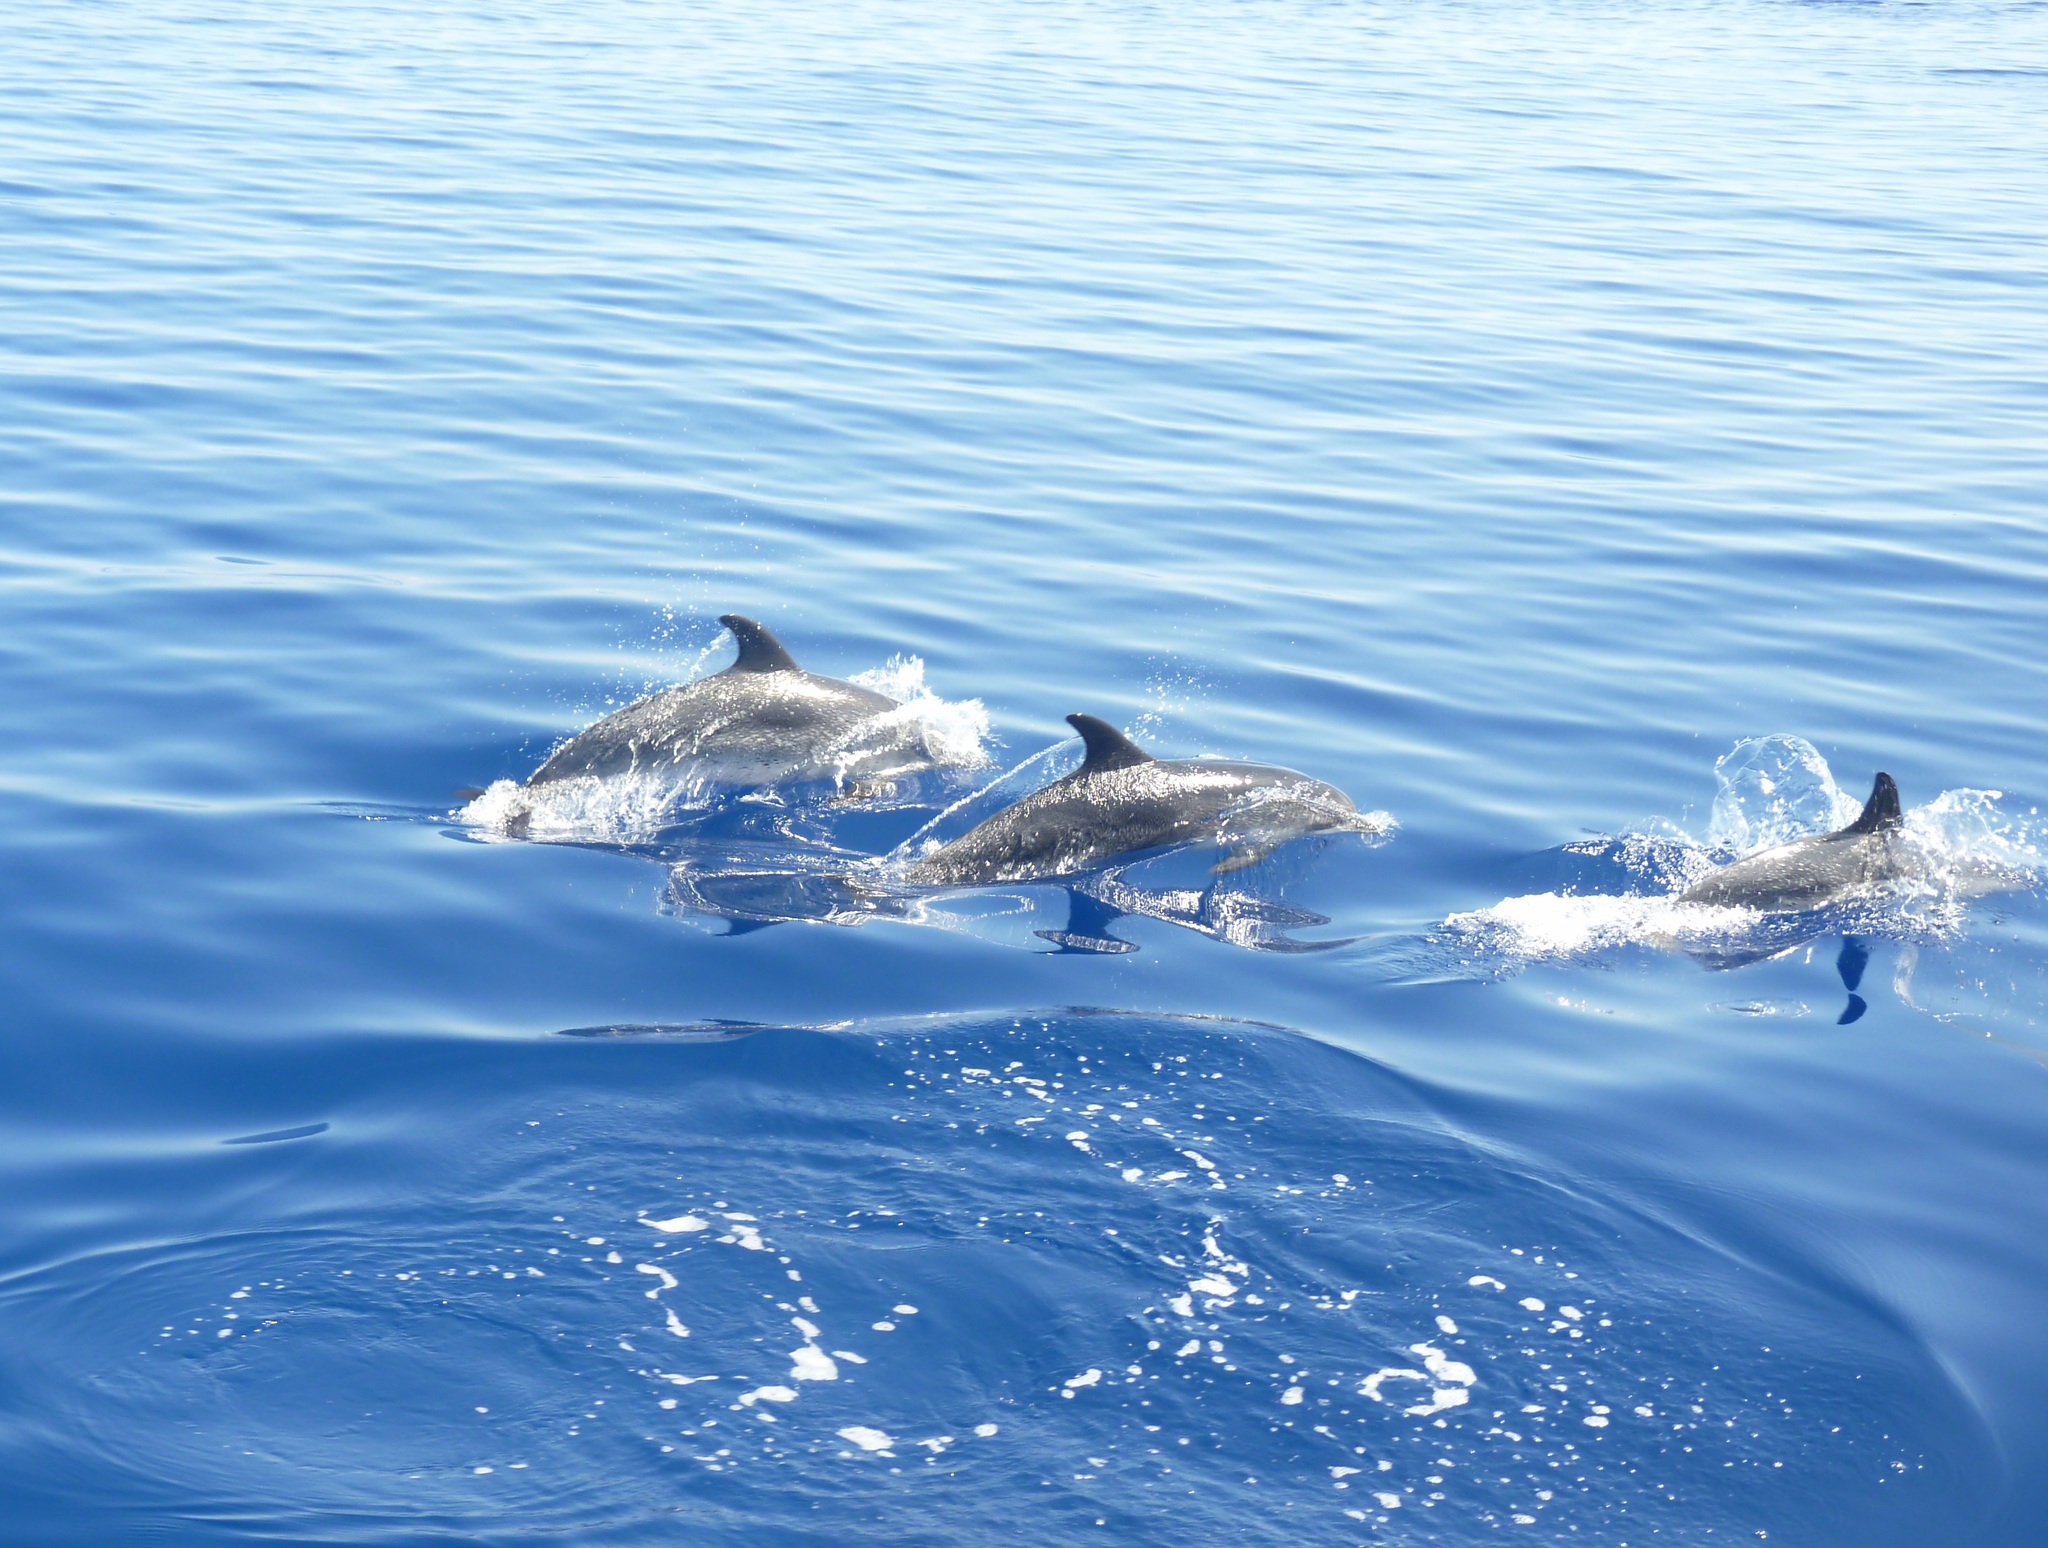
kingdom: Animalia
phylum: Chordata
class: Mammalia
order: Cetacea
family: Delphinidae
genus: Stenella
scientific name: Stenella frontalis
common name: Atlantic spotted dolphin
